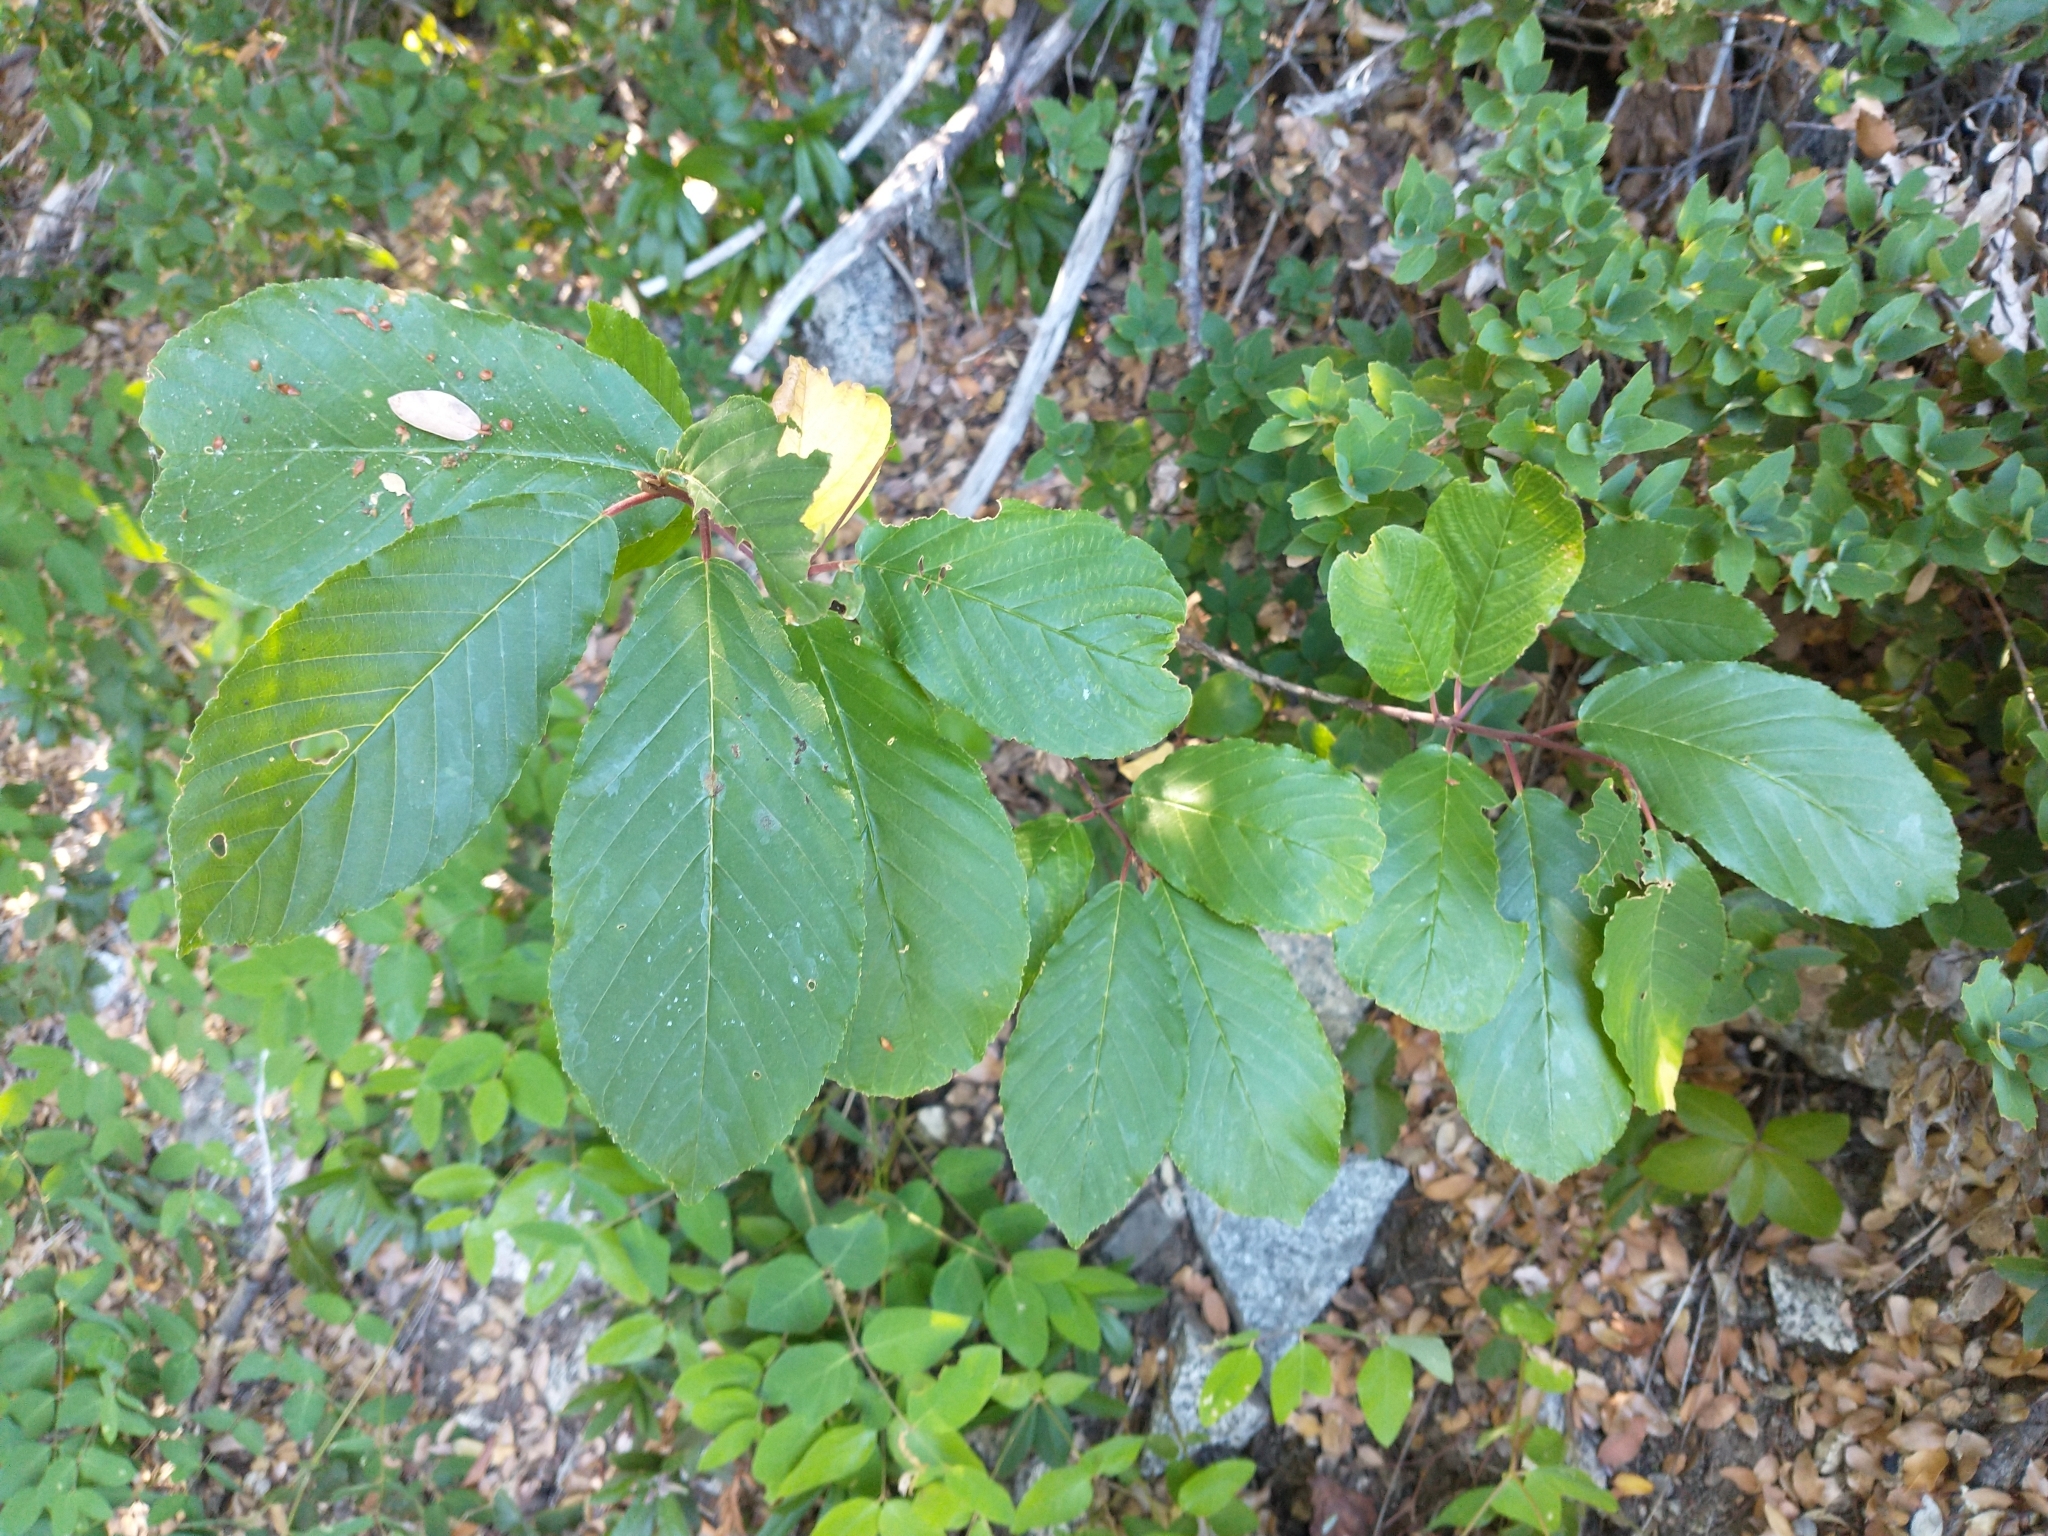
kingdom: Plantae
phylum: Tracheophyta
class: Magnoliopsida
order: Rosales
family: Rhamnaceae
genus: Frangula
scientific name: Frangula purshiana
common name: Cascara buckthorn
